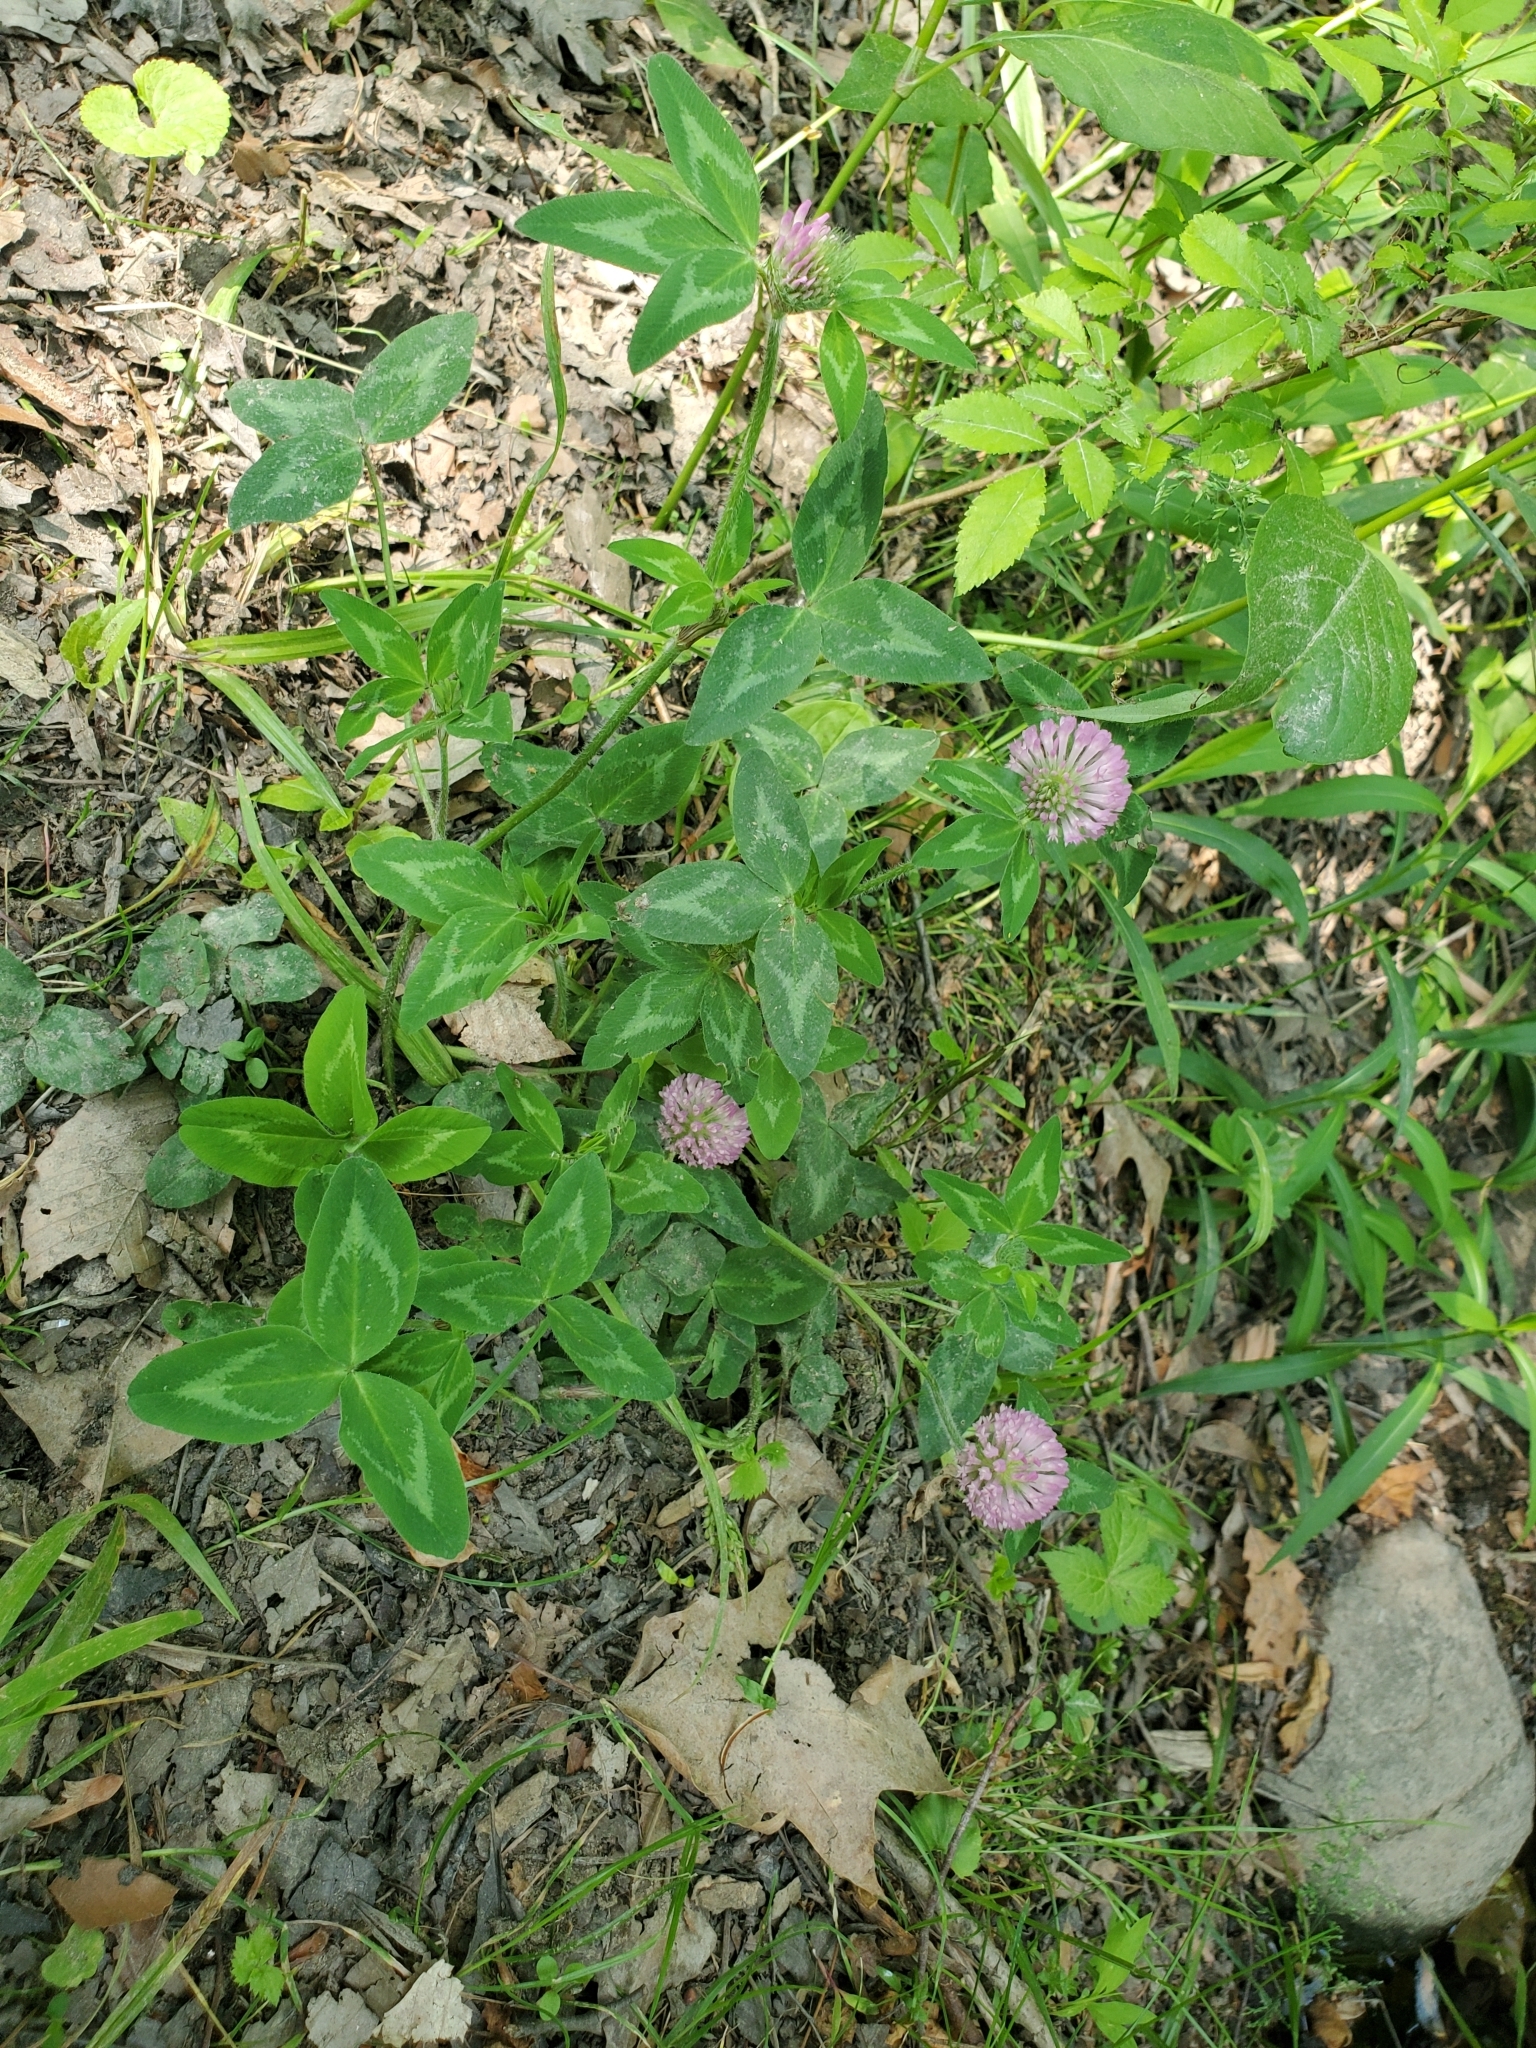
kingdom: Plantae
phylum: Tracheophyta
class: Magnoliopsida
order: Fabales
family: Fabaceae
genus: Trifolium
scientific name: Trifolium pratense
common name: Red clover
